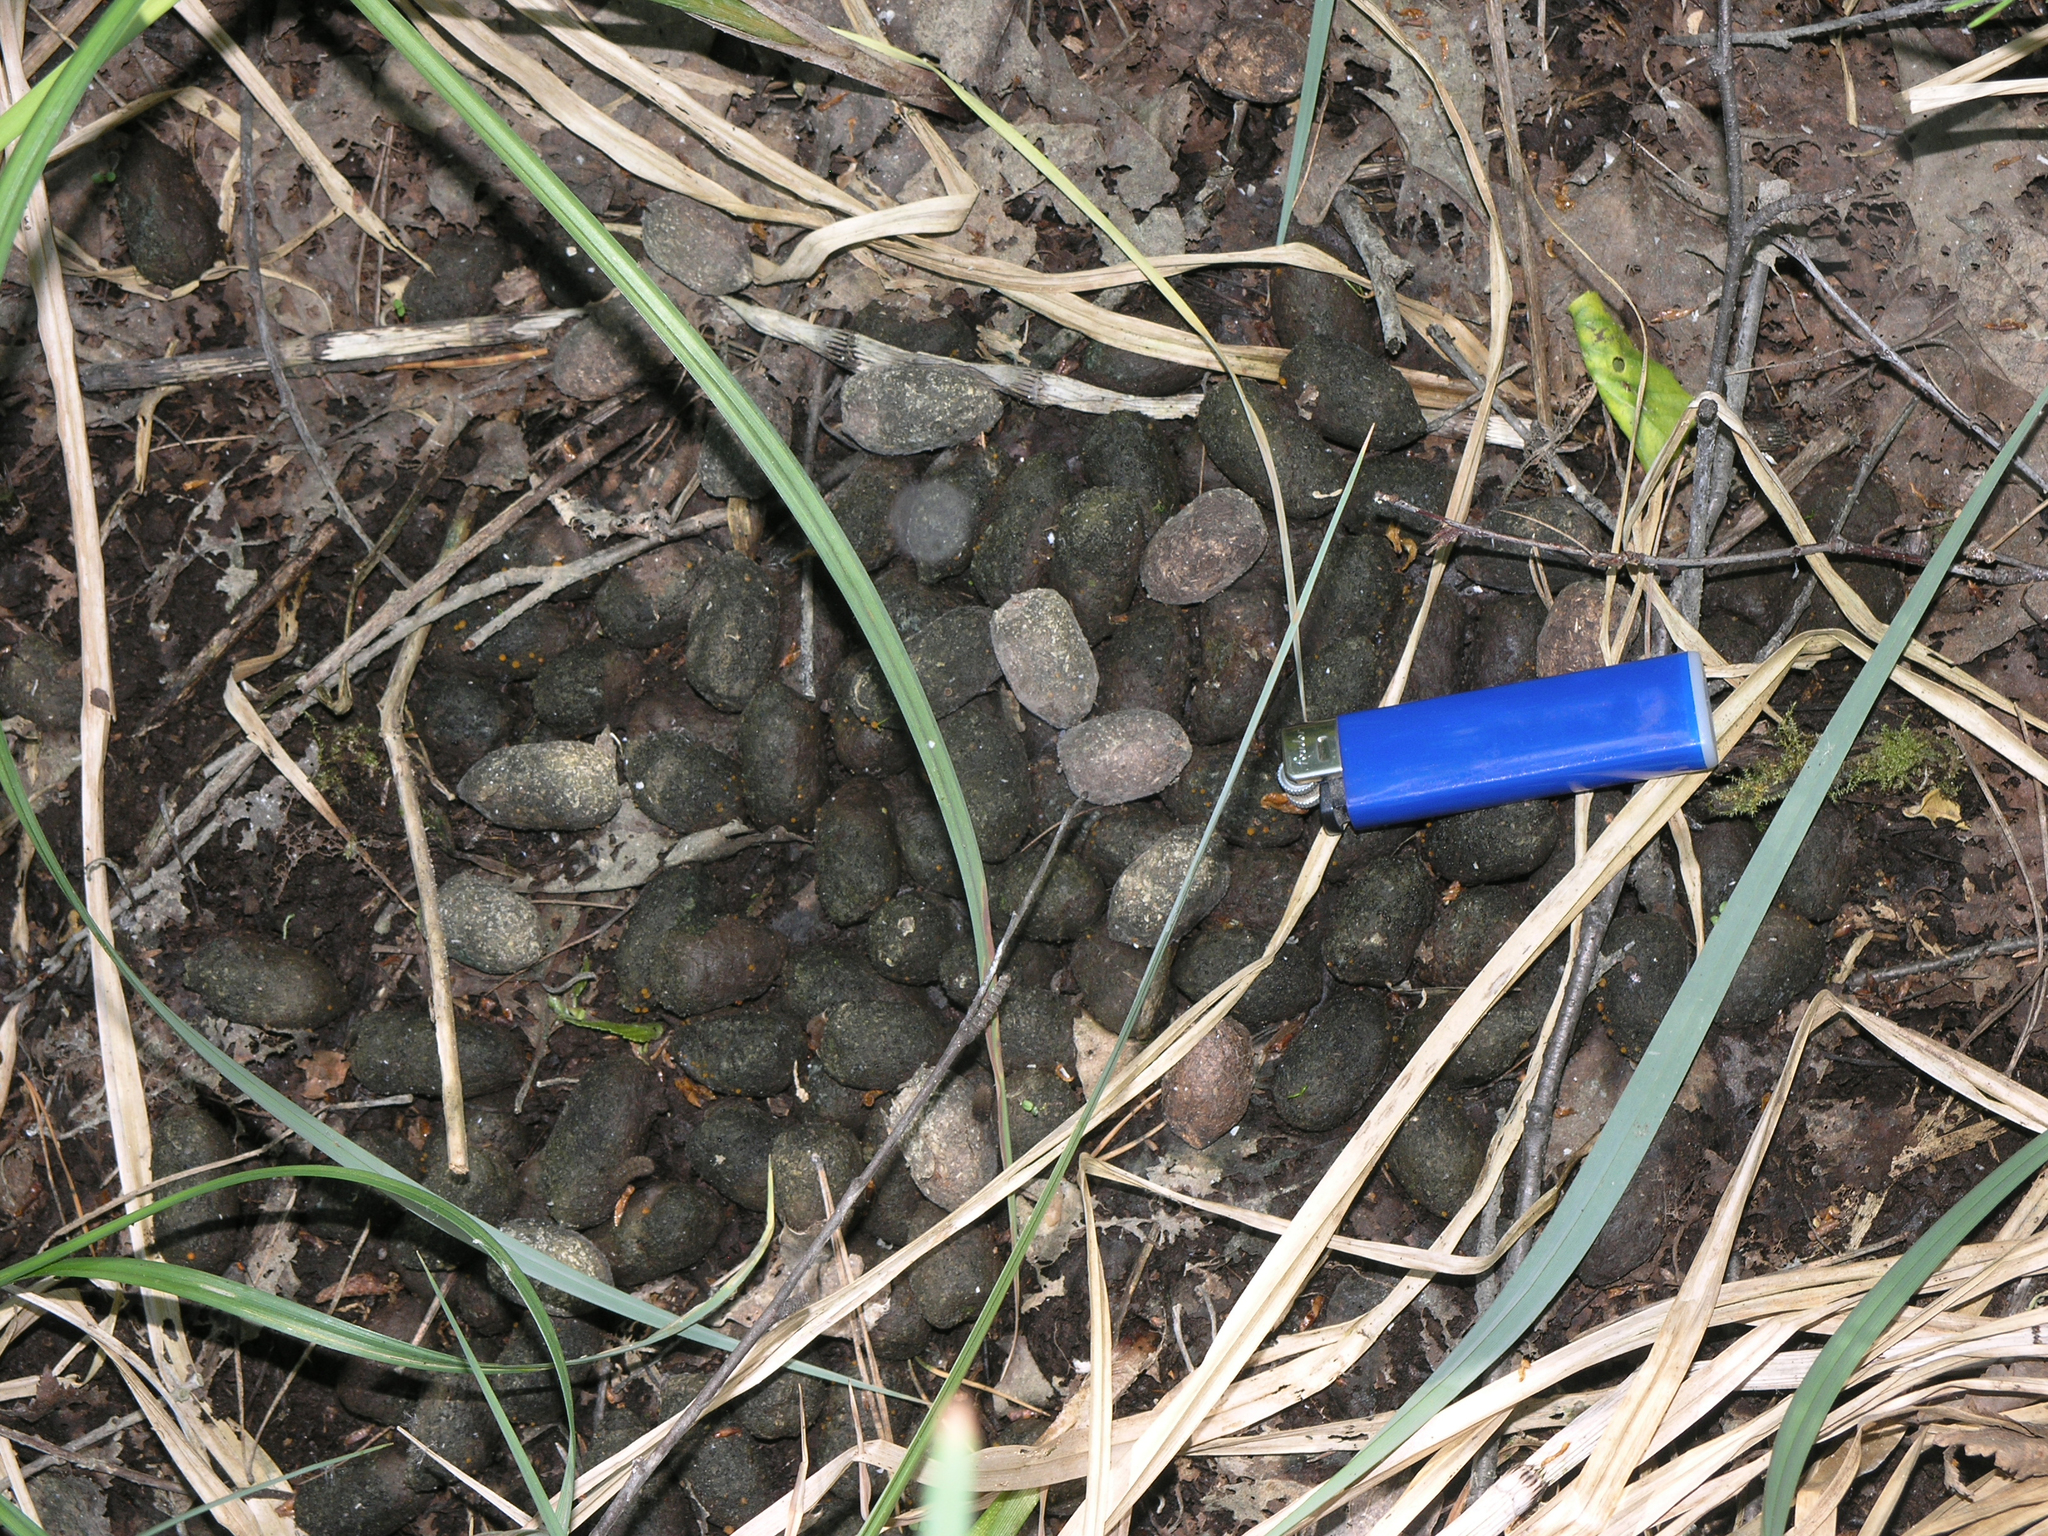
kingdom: Animalia
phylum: Chordata
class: Mammalia
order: Artiodactyla
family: Cervidae
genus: Alces
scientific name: Alces alces
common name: Moose
